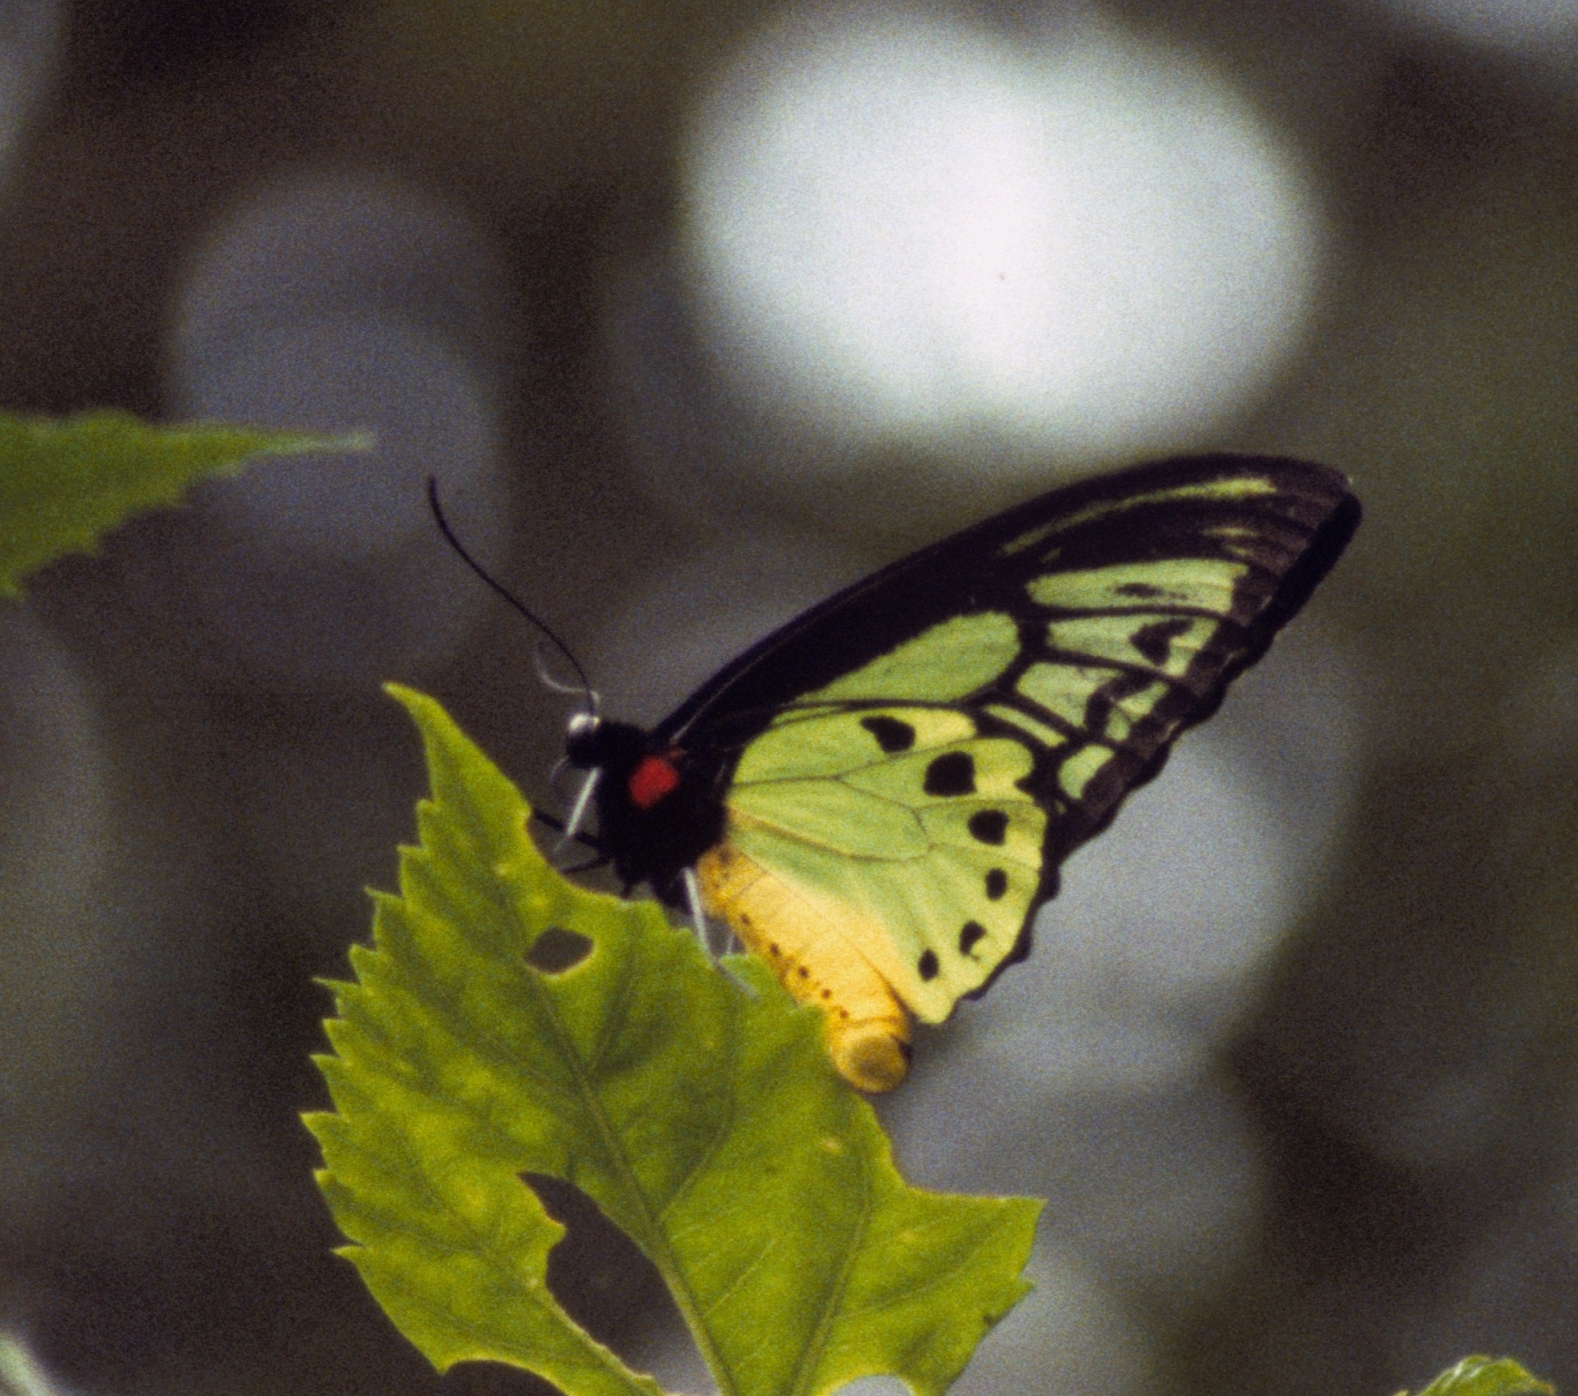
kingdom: Animalia
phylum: Arthropoda
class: Insecta
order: Lepidoptera
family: Papilionidae
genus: Ornithoptera
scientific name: Ornithoptera priamus
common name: Cape york birdwing
